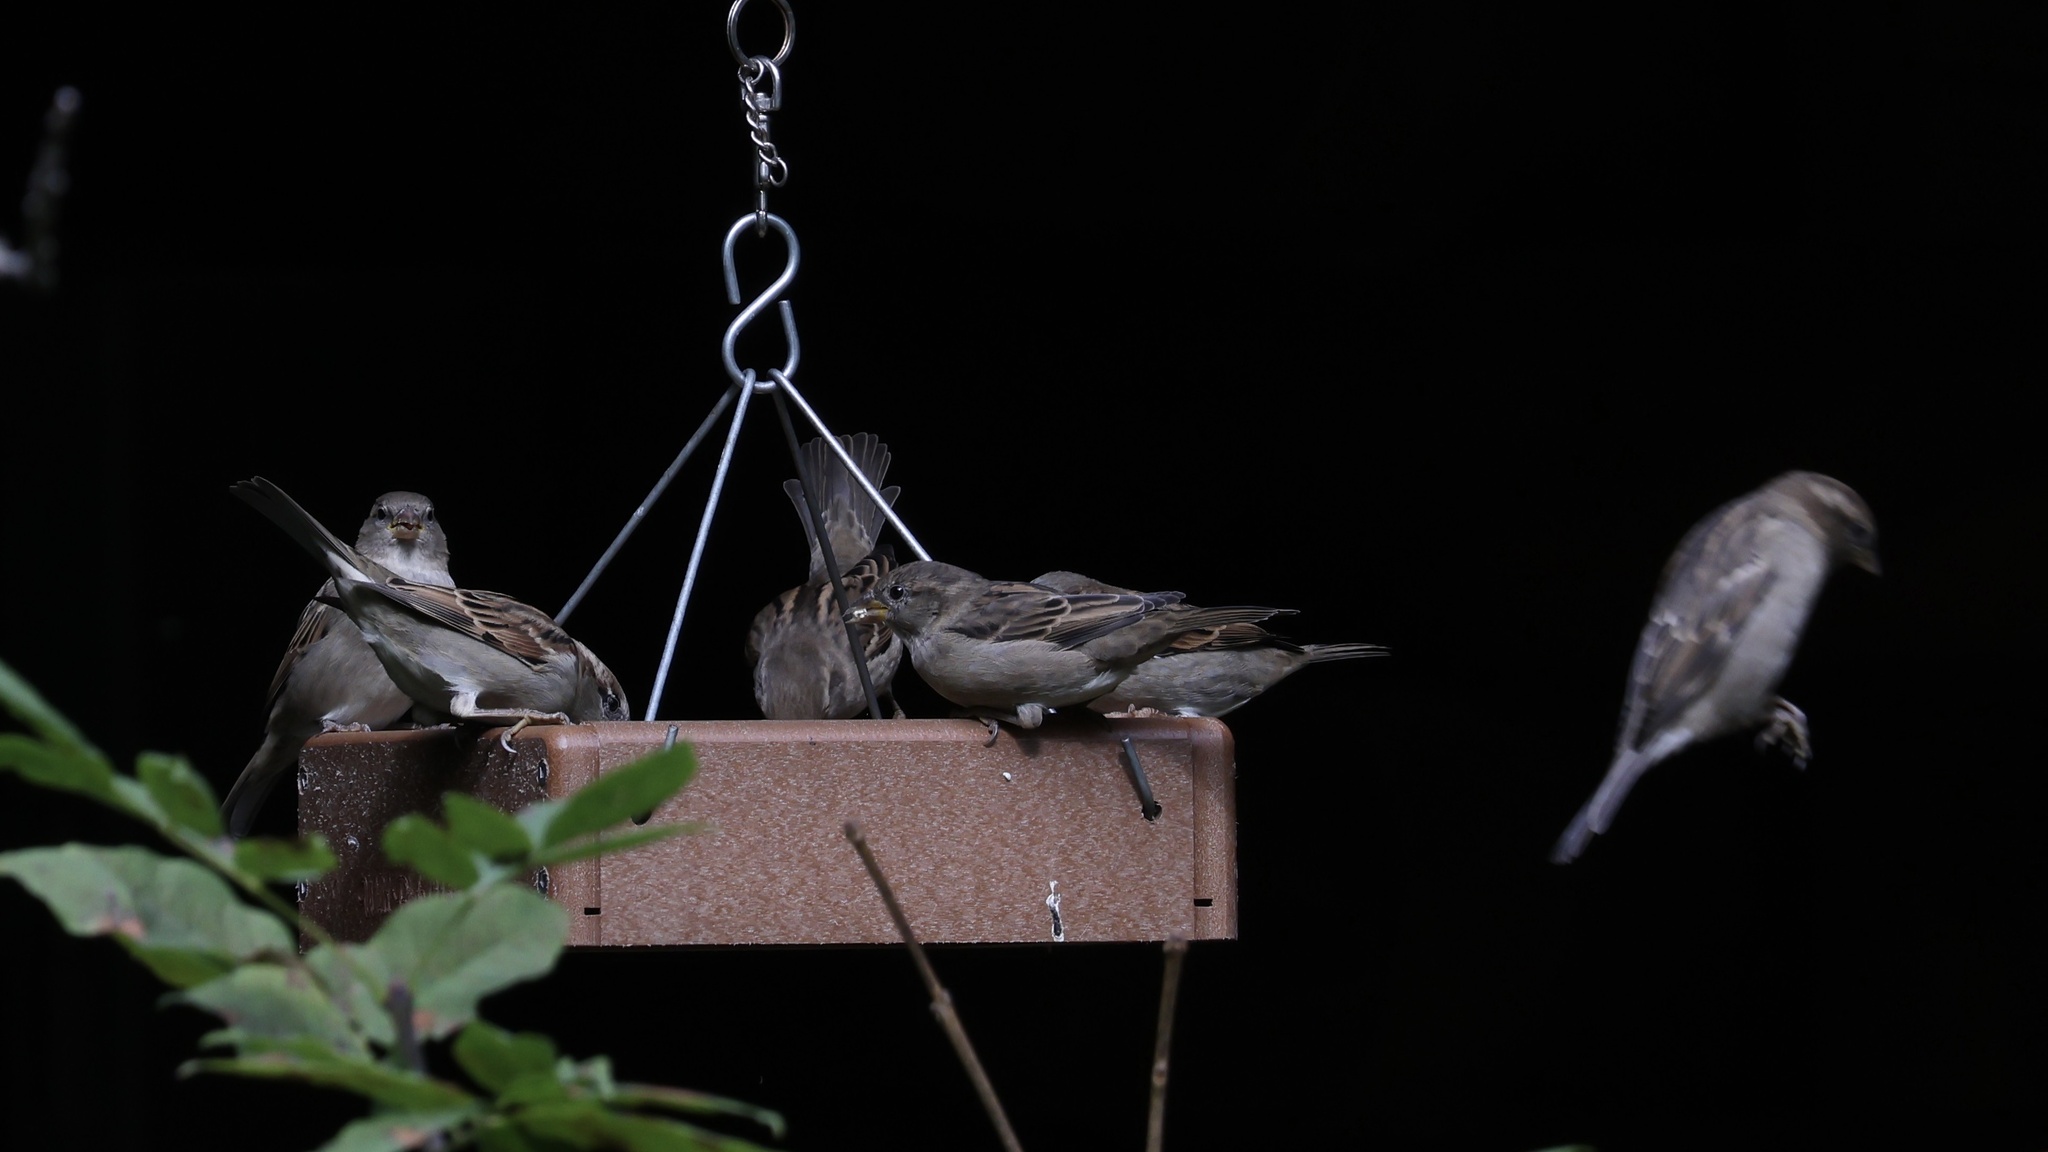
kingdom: Animalia
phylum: Chordata
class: Aves
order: Passeriformes
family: Passeridae
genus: Passer
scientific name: Passer domesticus
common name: House sparrow
